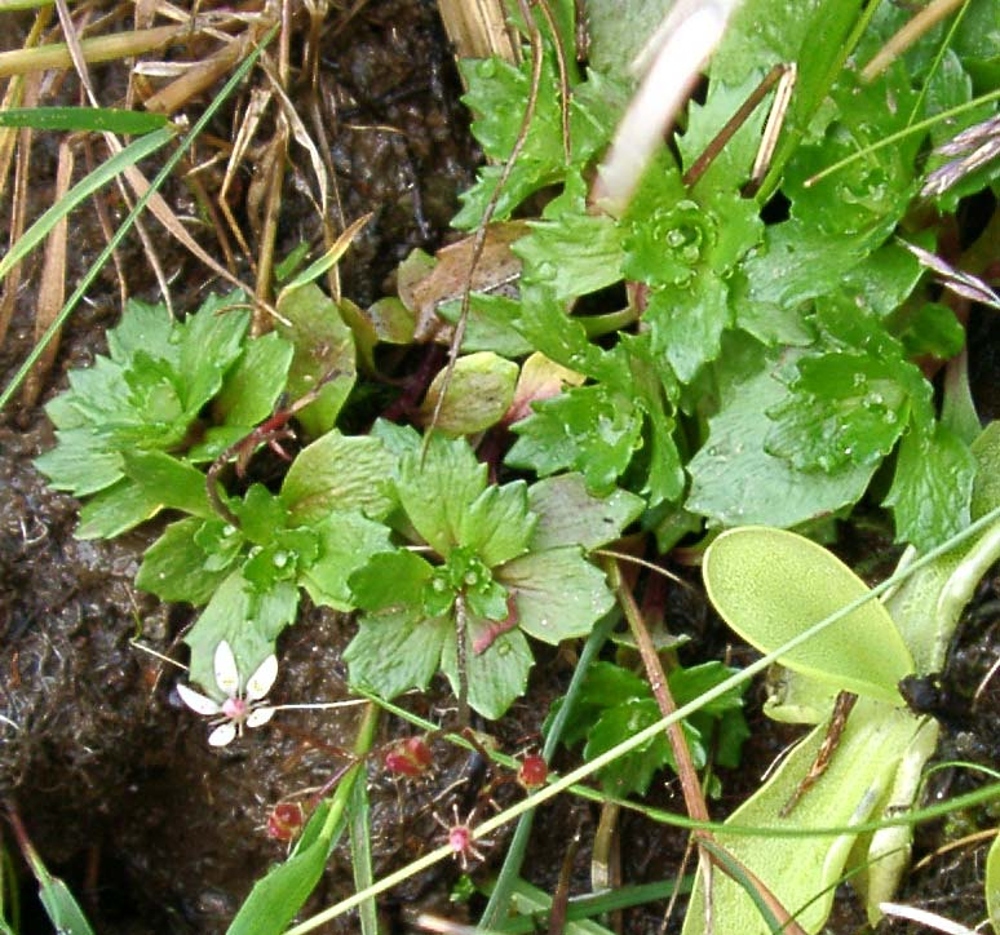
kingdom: Plantae
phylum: Tracheophyta
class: Magnoliopsida
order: Saxifragales
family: Saxifragaceae
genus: Micranthes
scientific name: Micranthes stellaris
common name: Starry saxifrage
